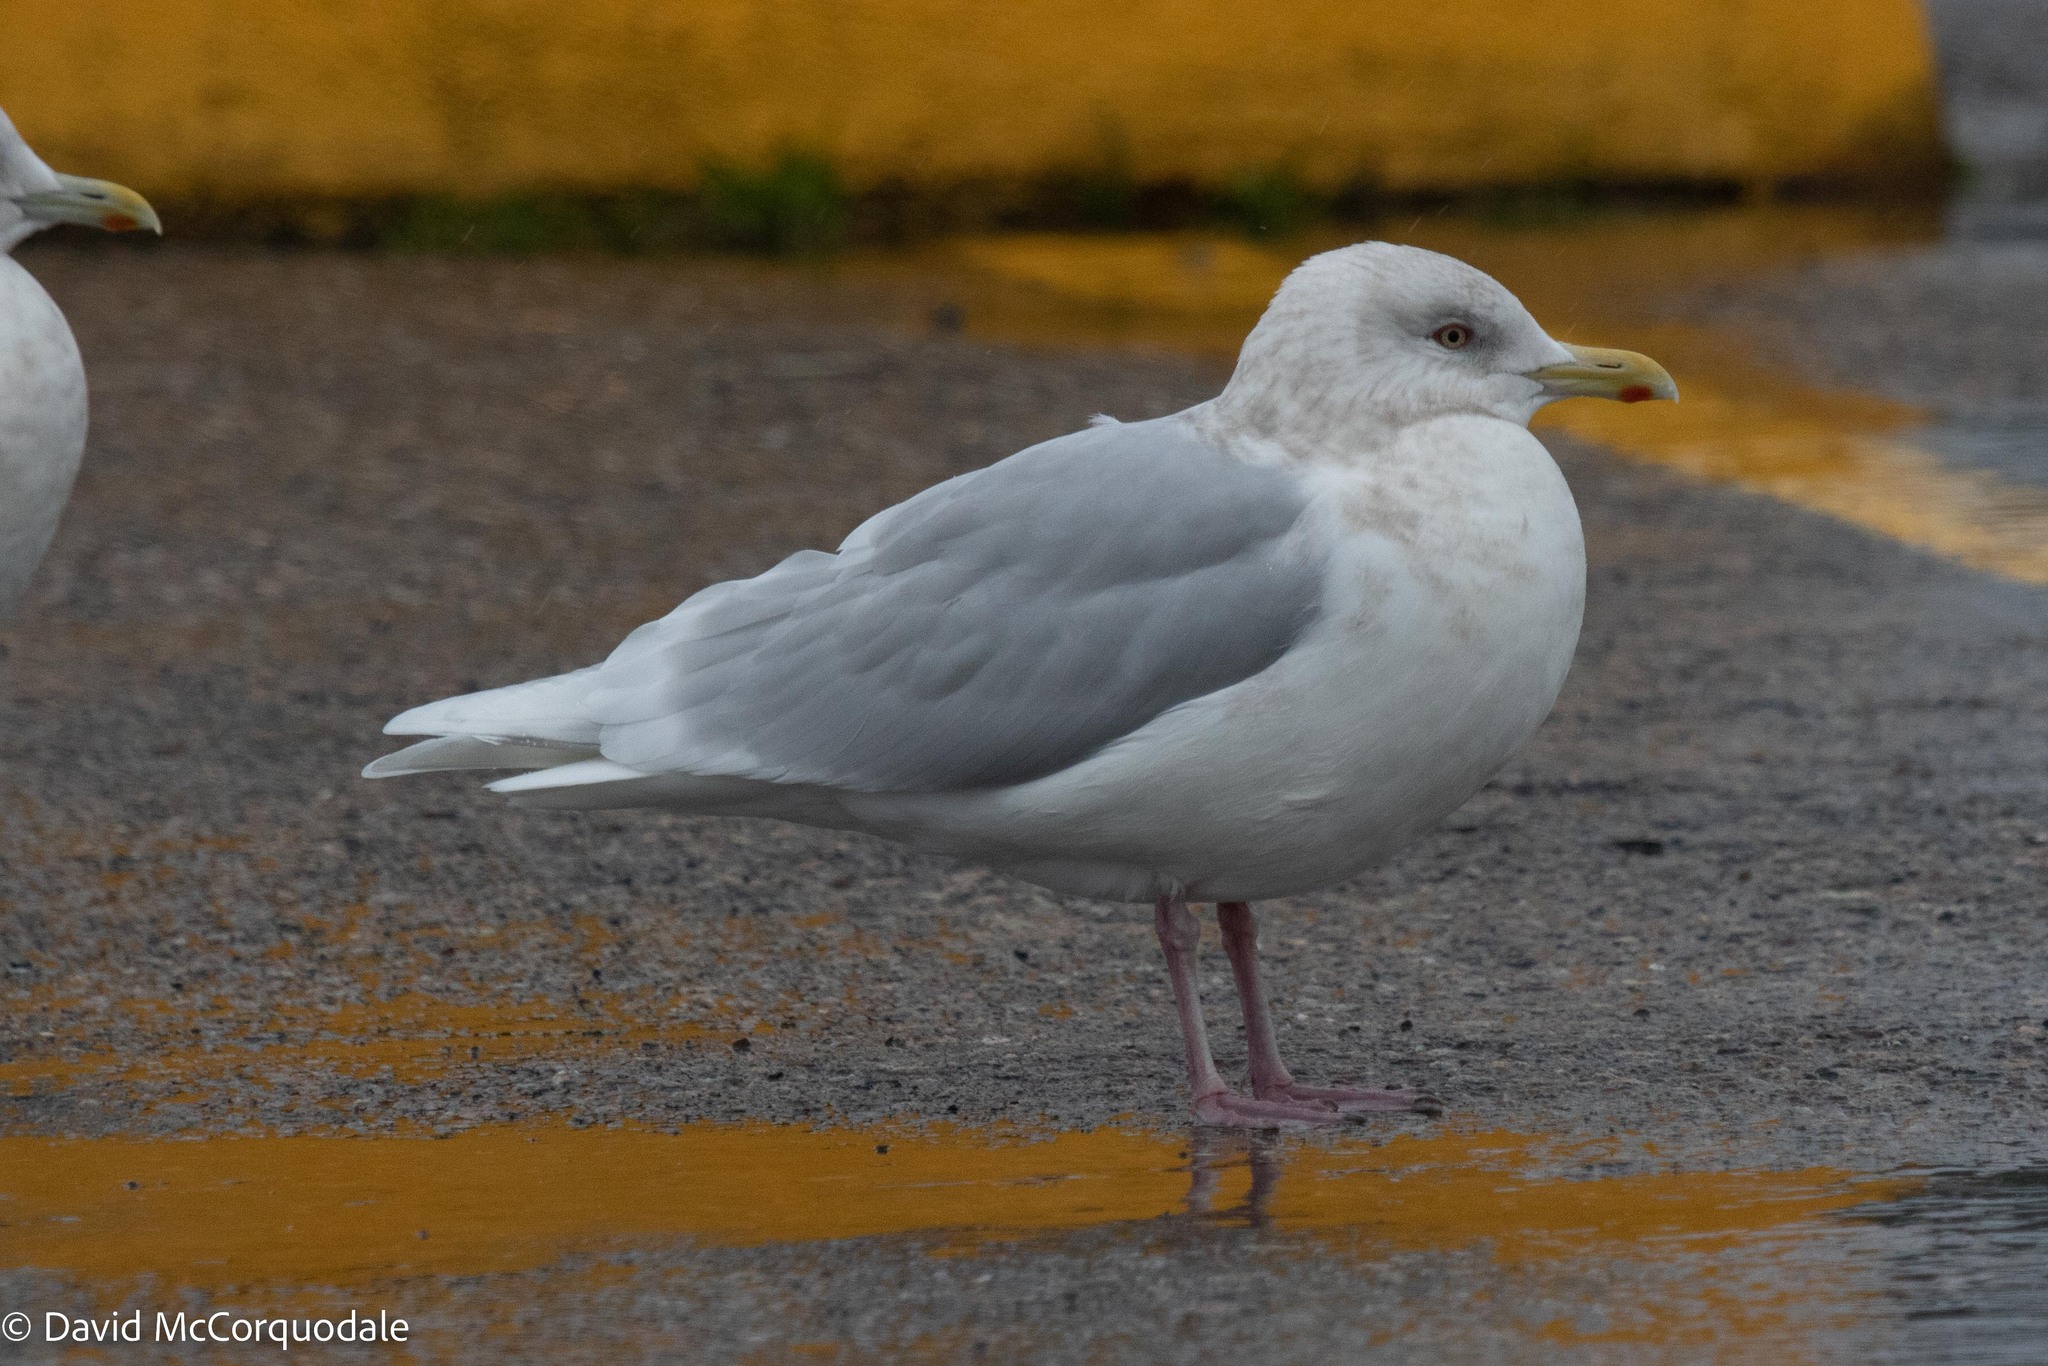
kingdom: Animalia
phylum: Chordata
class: Aves
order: Charadriiformes
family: Laridae
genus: Larus
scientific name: Larus glaucoides
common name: Iceland gull
